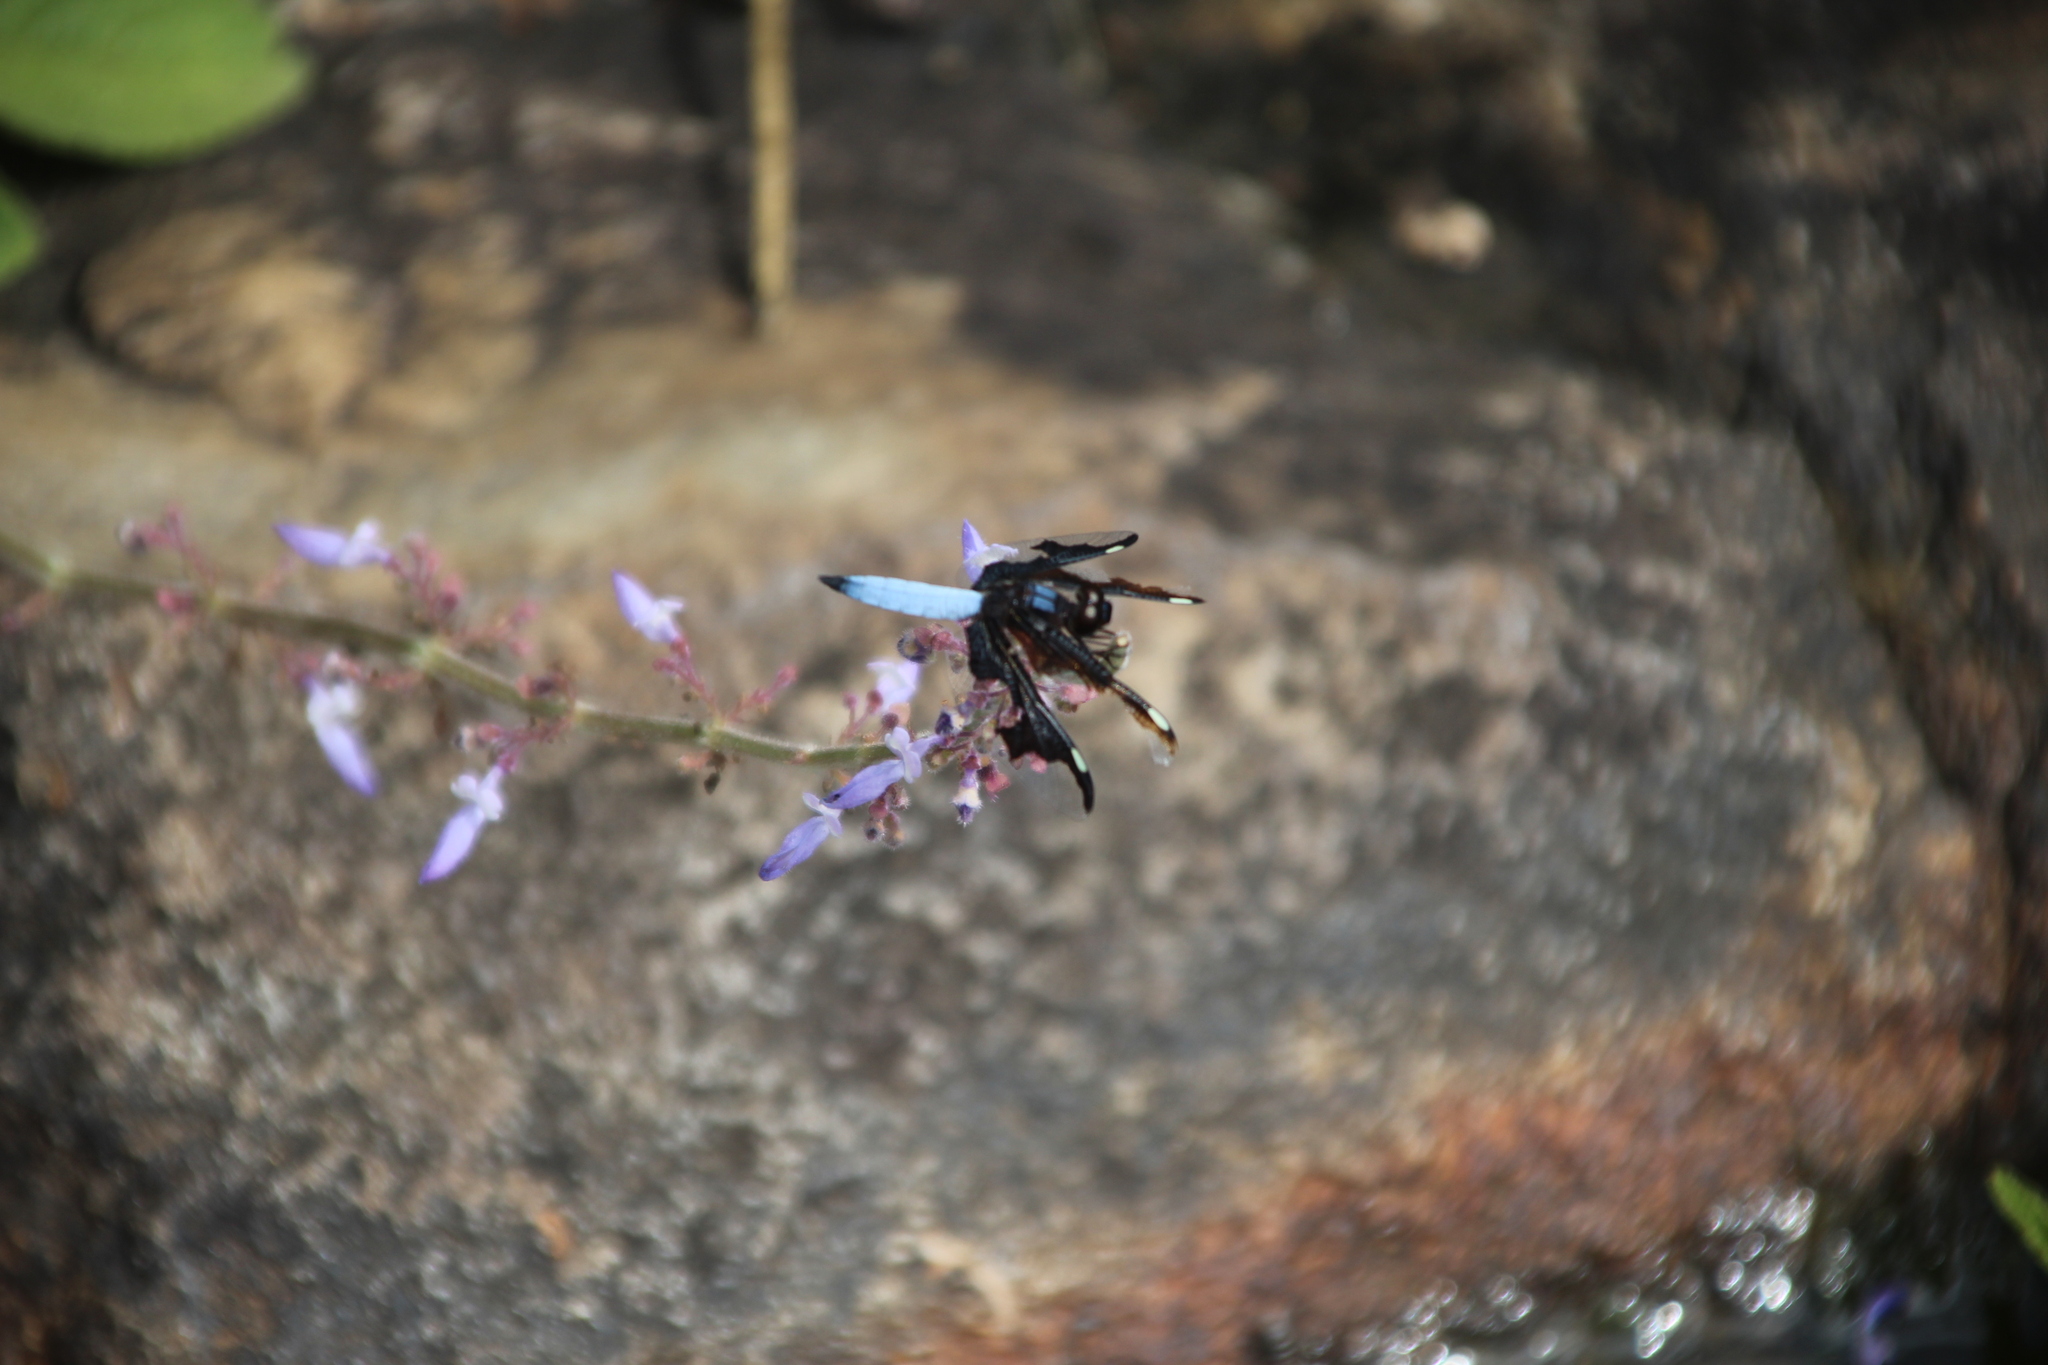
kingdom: Animalia
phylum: Arthropoda
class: Insecta
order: Odonata
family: Libellulidae
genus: Palpopleura
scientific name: Palpopleura portia
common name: Portia widow
